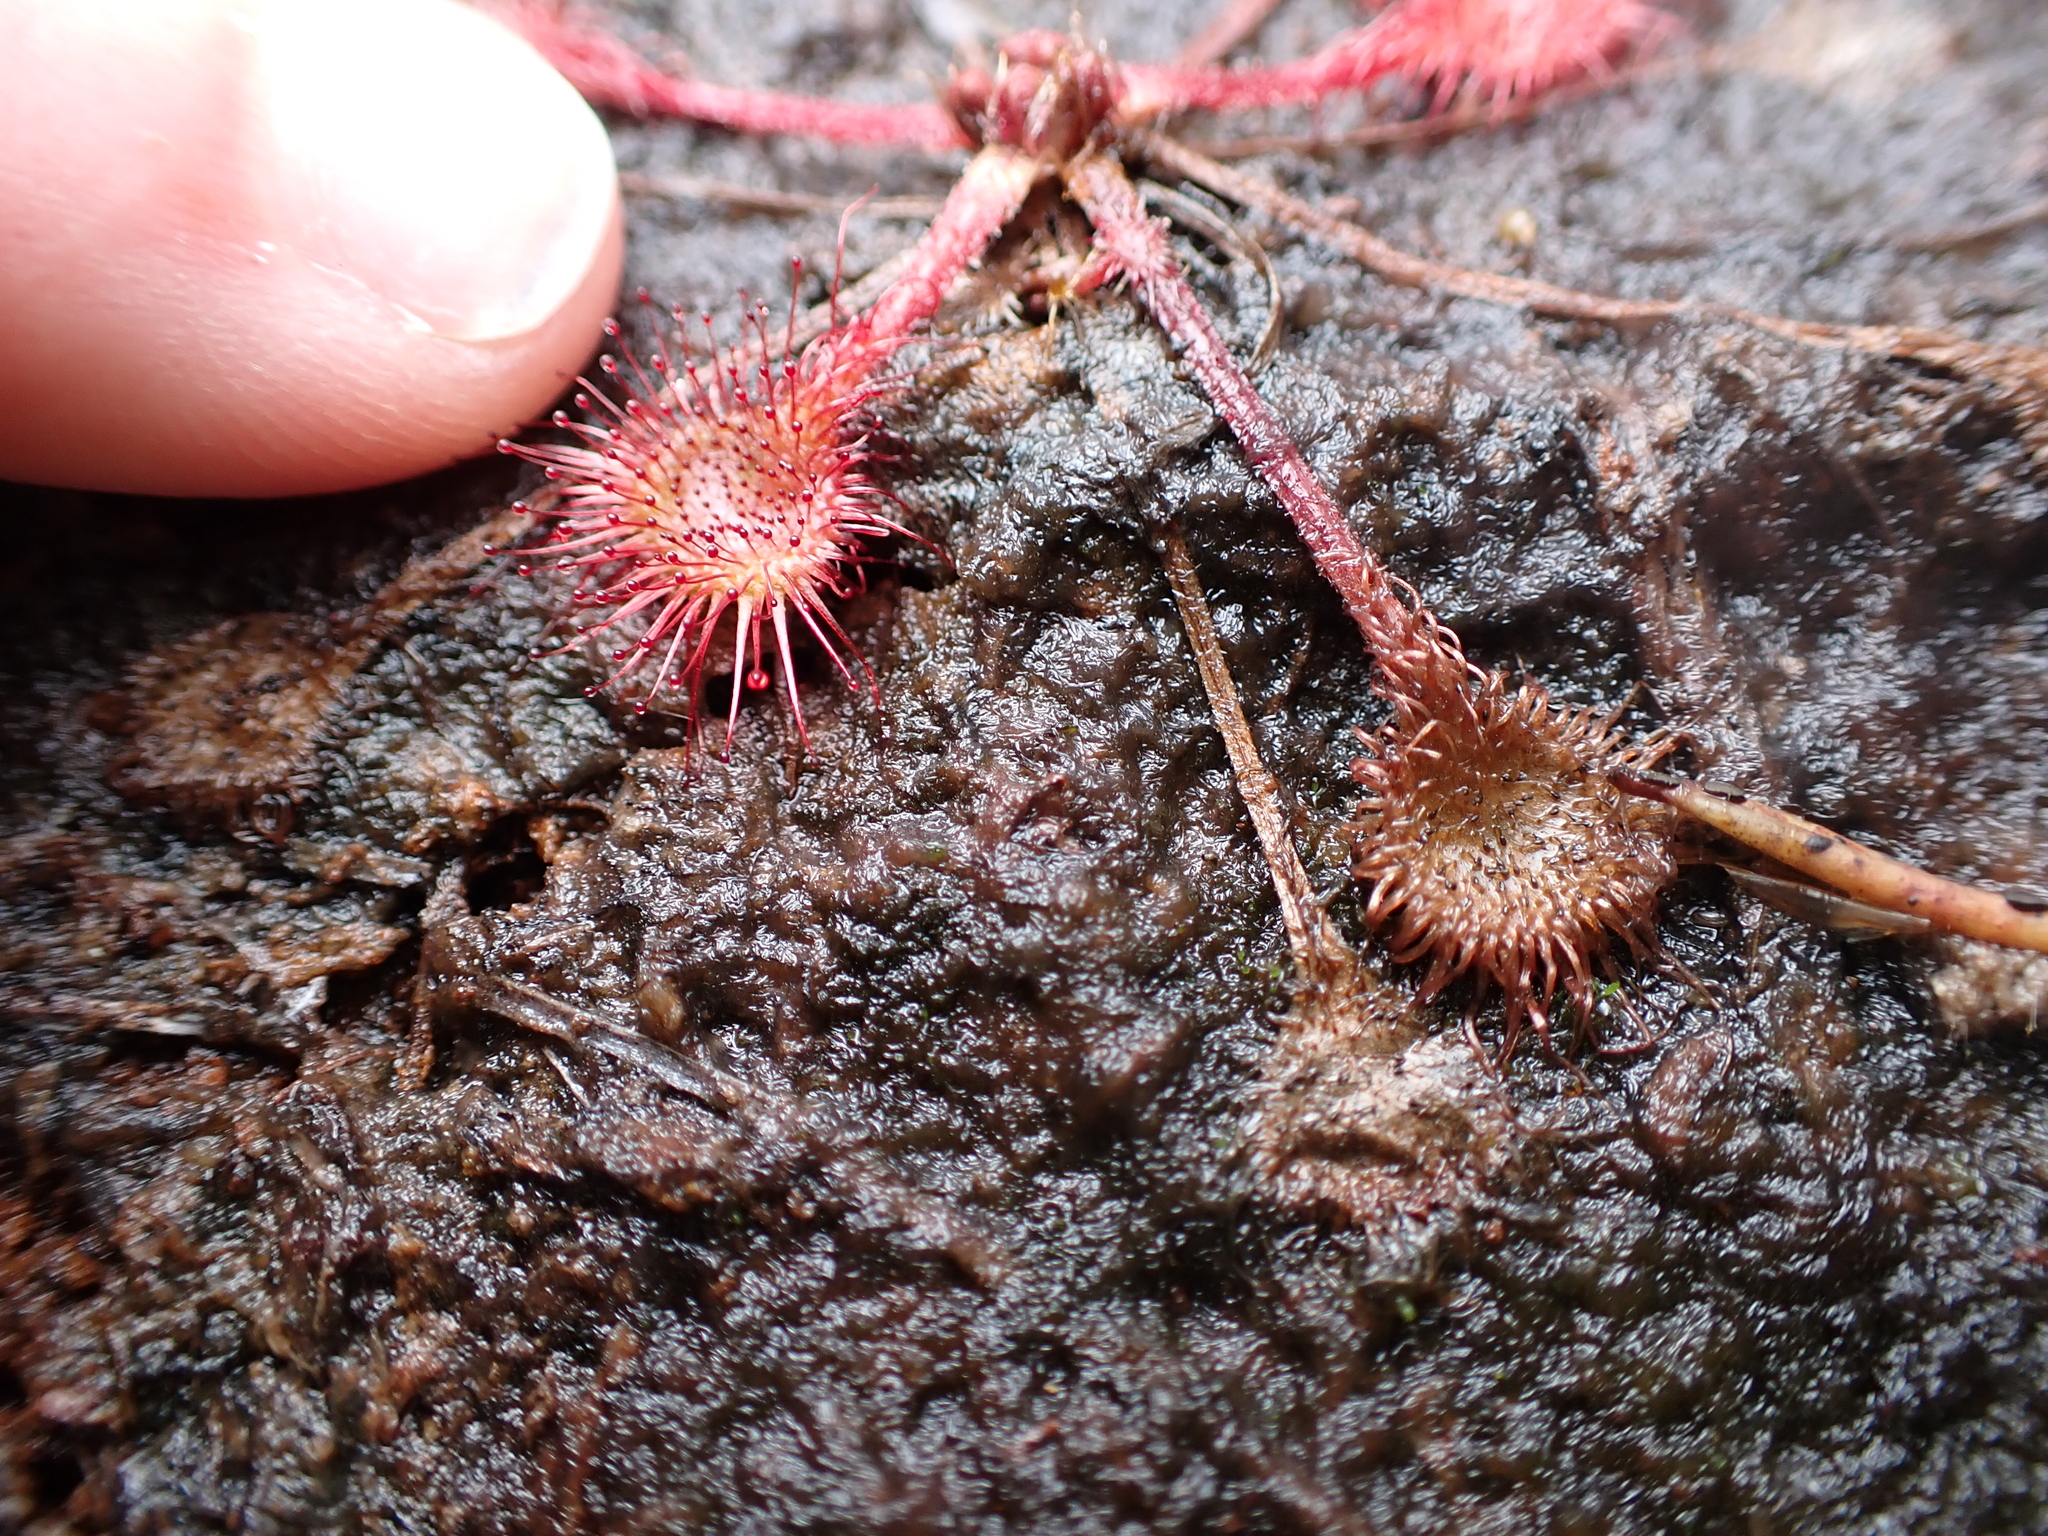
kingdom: Plantae
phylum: Tracheophyta
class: Magnoliopsida
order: Caryophyllales
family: Droseraceae
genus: Drosera
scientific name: Drosera rotundifolia
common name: Round-leaved sundew
